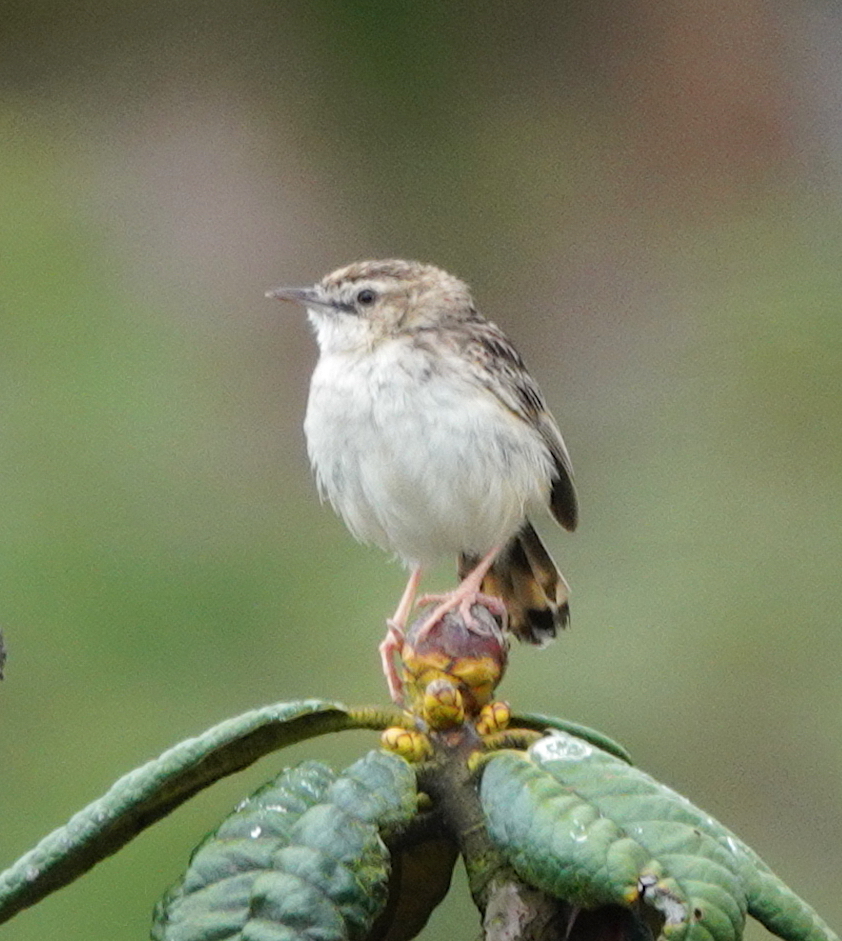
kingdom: Animalia
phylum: Chordata
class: Aves
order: Passeriformes
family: Cisticolidae
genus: Cisticola
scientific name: Cisticola juncidis
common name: Zitting cisticola
